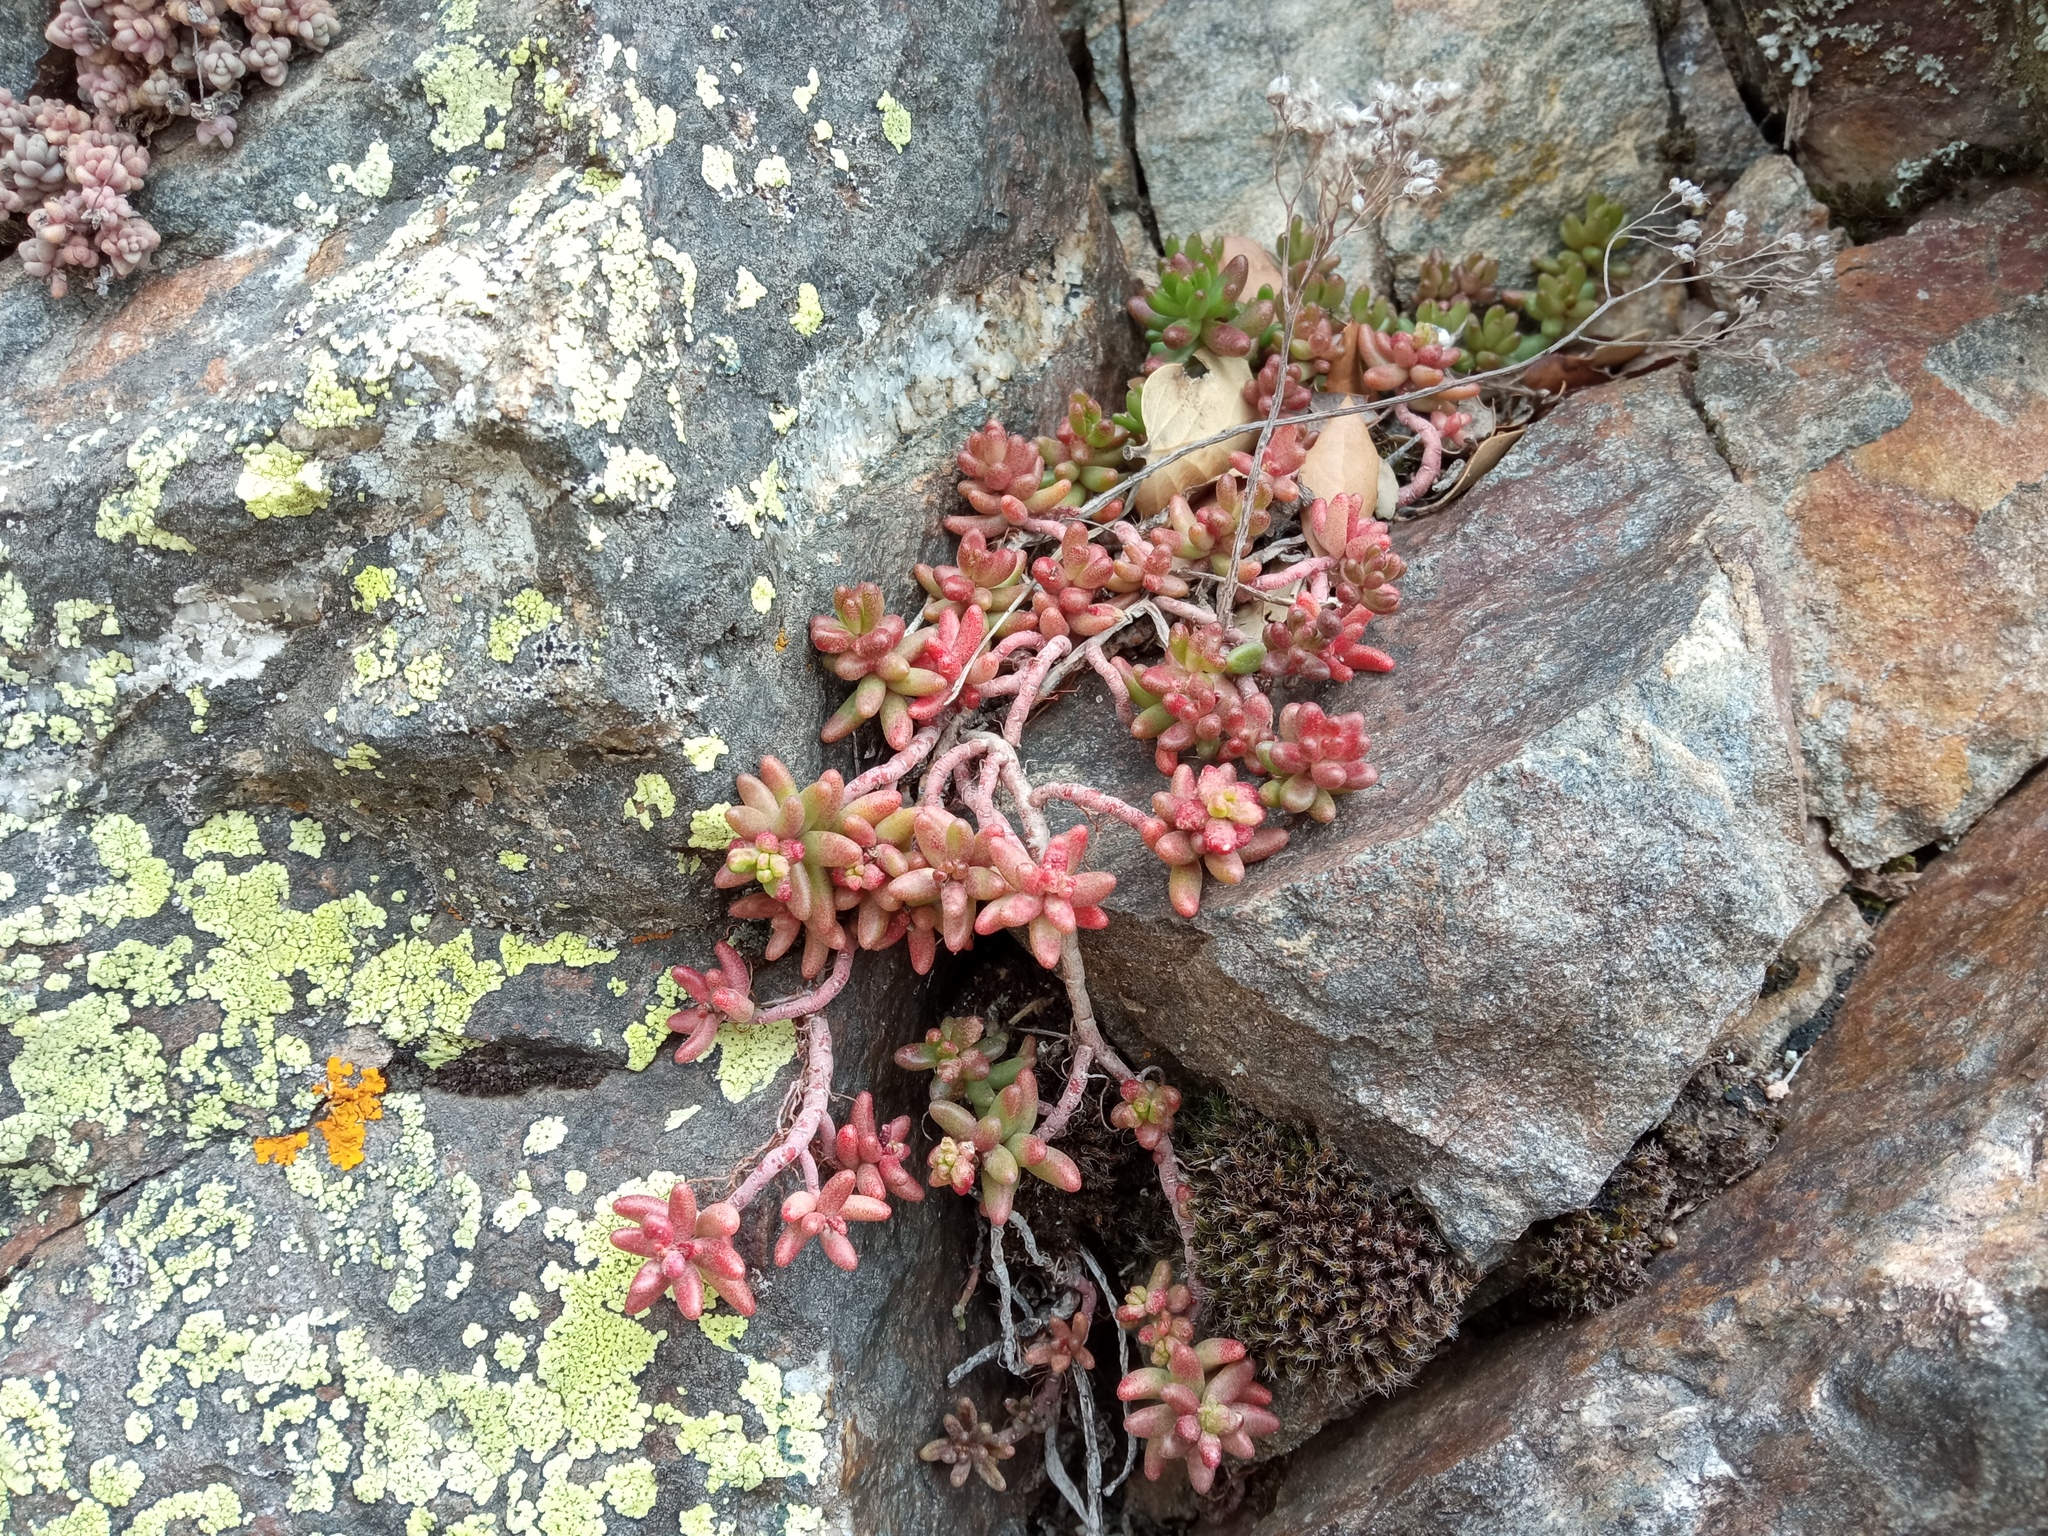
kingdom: Plantae
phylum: Tracheophyta
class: Magnoliopsida
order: Saxifragales
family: Crassulaceae
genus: Sedum
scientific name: Sedum album
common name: White stonecrop
